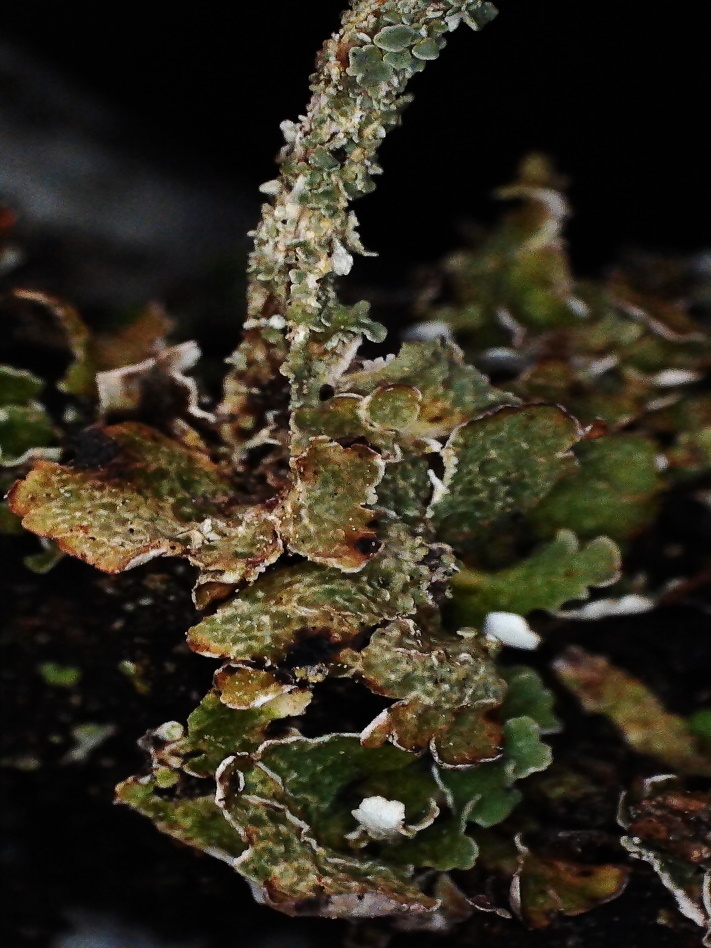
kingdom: Fungi
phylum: Ascomycota
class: Lecanoromycetes
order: Lecanorales
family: Cladoniaceae
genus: Cladonia
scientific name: Cladonia macrophylla
